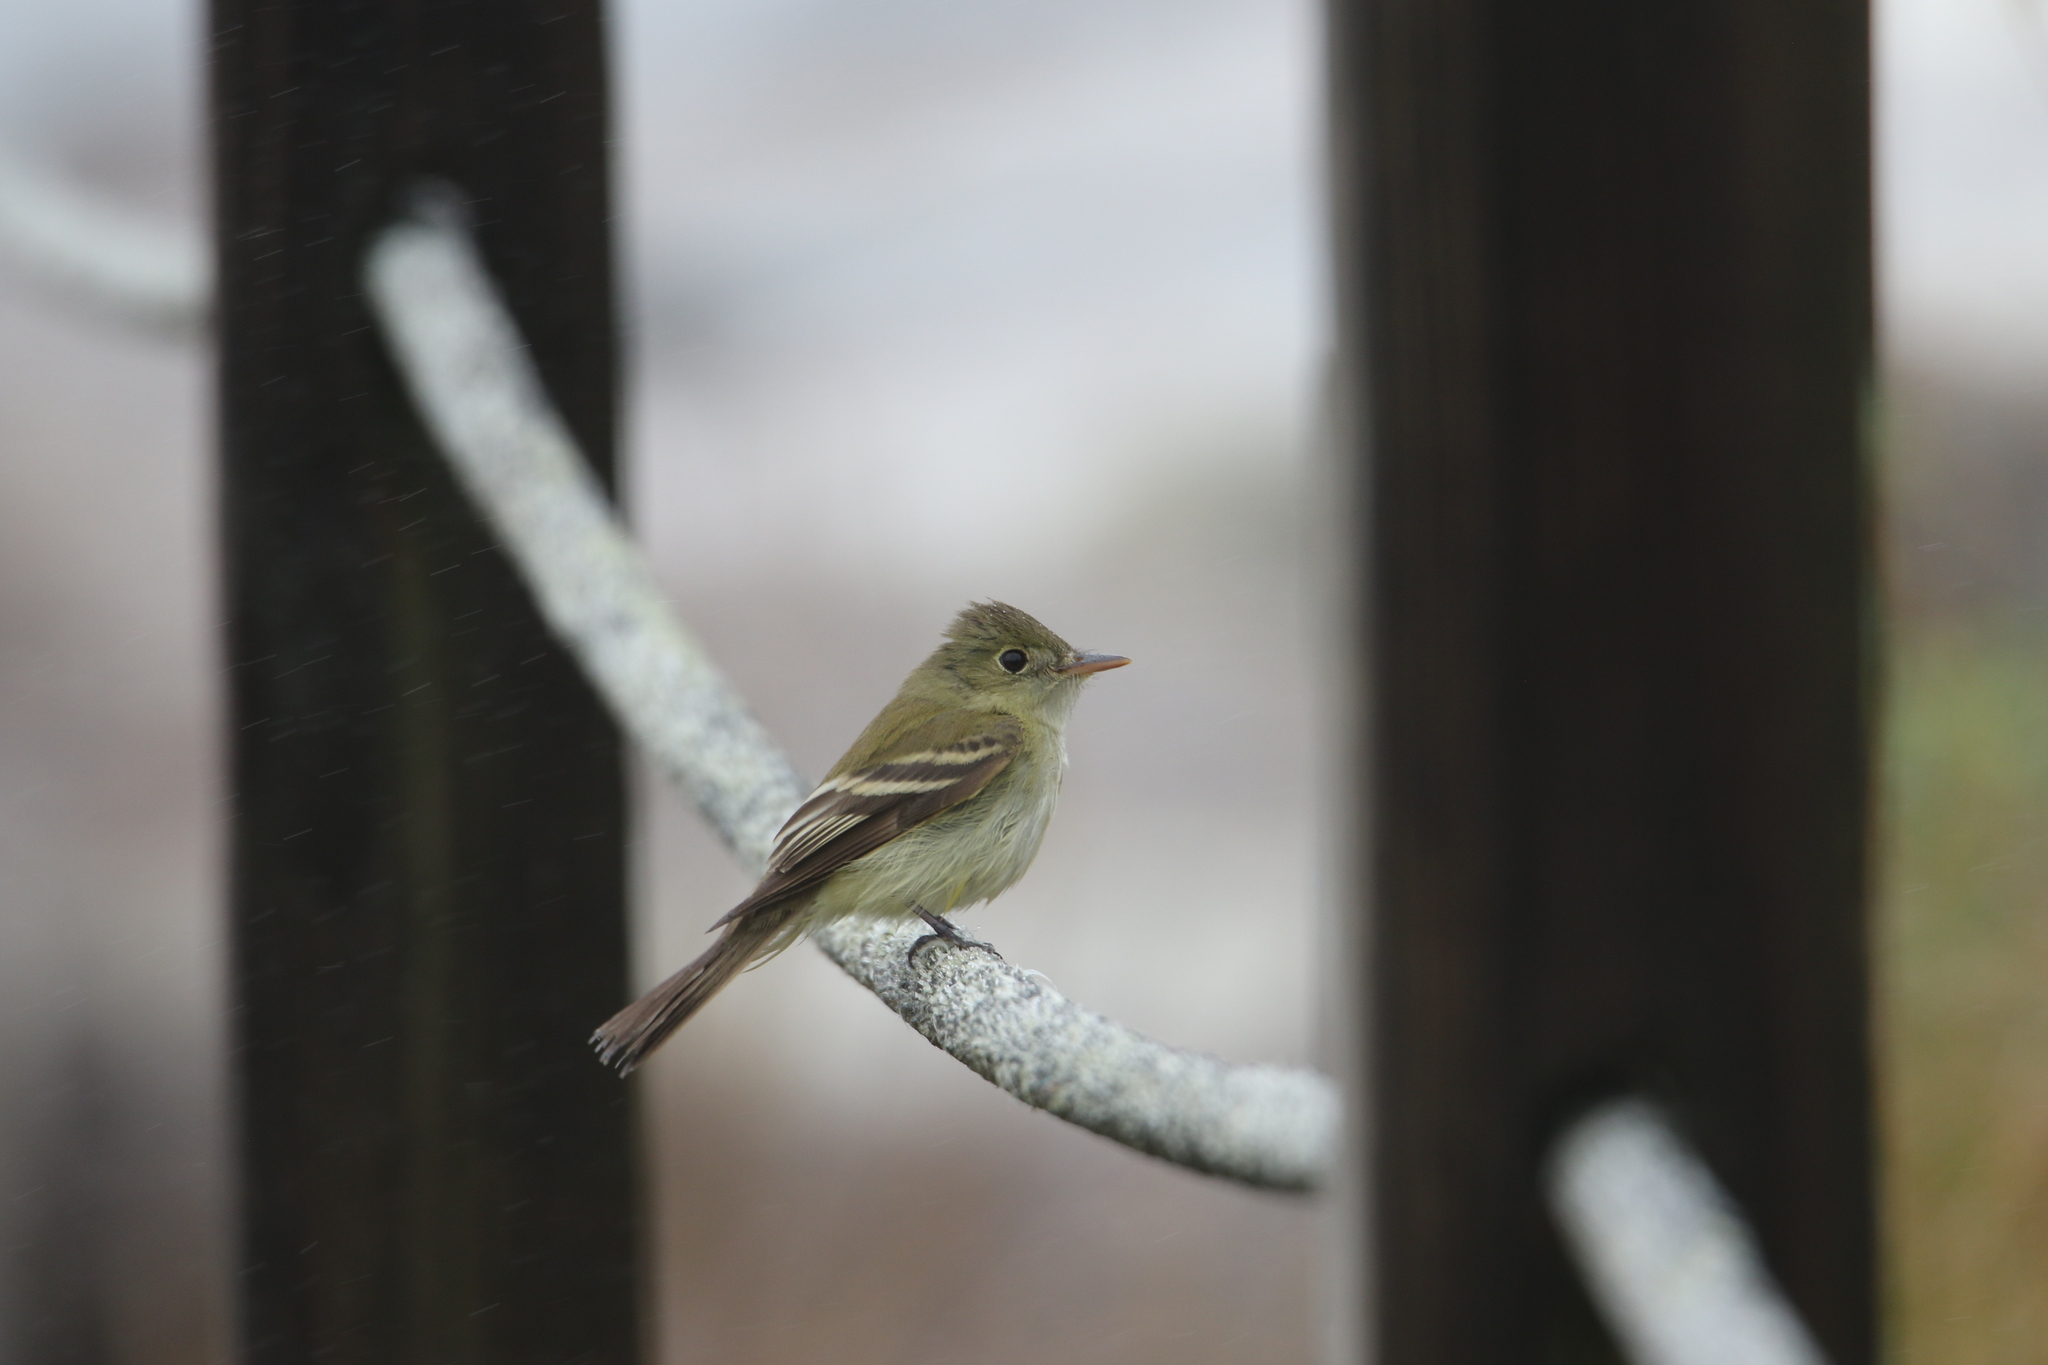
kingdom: Animalia
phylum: Chordata
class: Aves
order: Passeriformes
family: Tyrannidae
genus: Empidonax
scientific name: Empidonax virescens
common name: Acadian flycatcher
